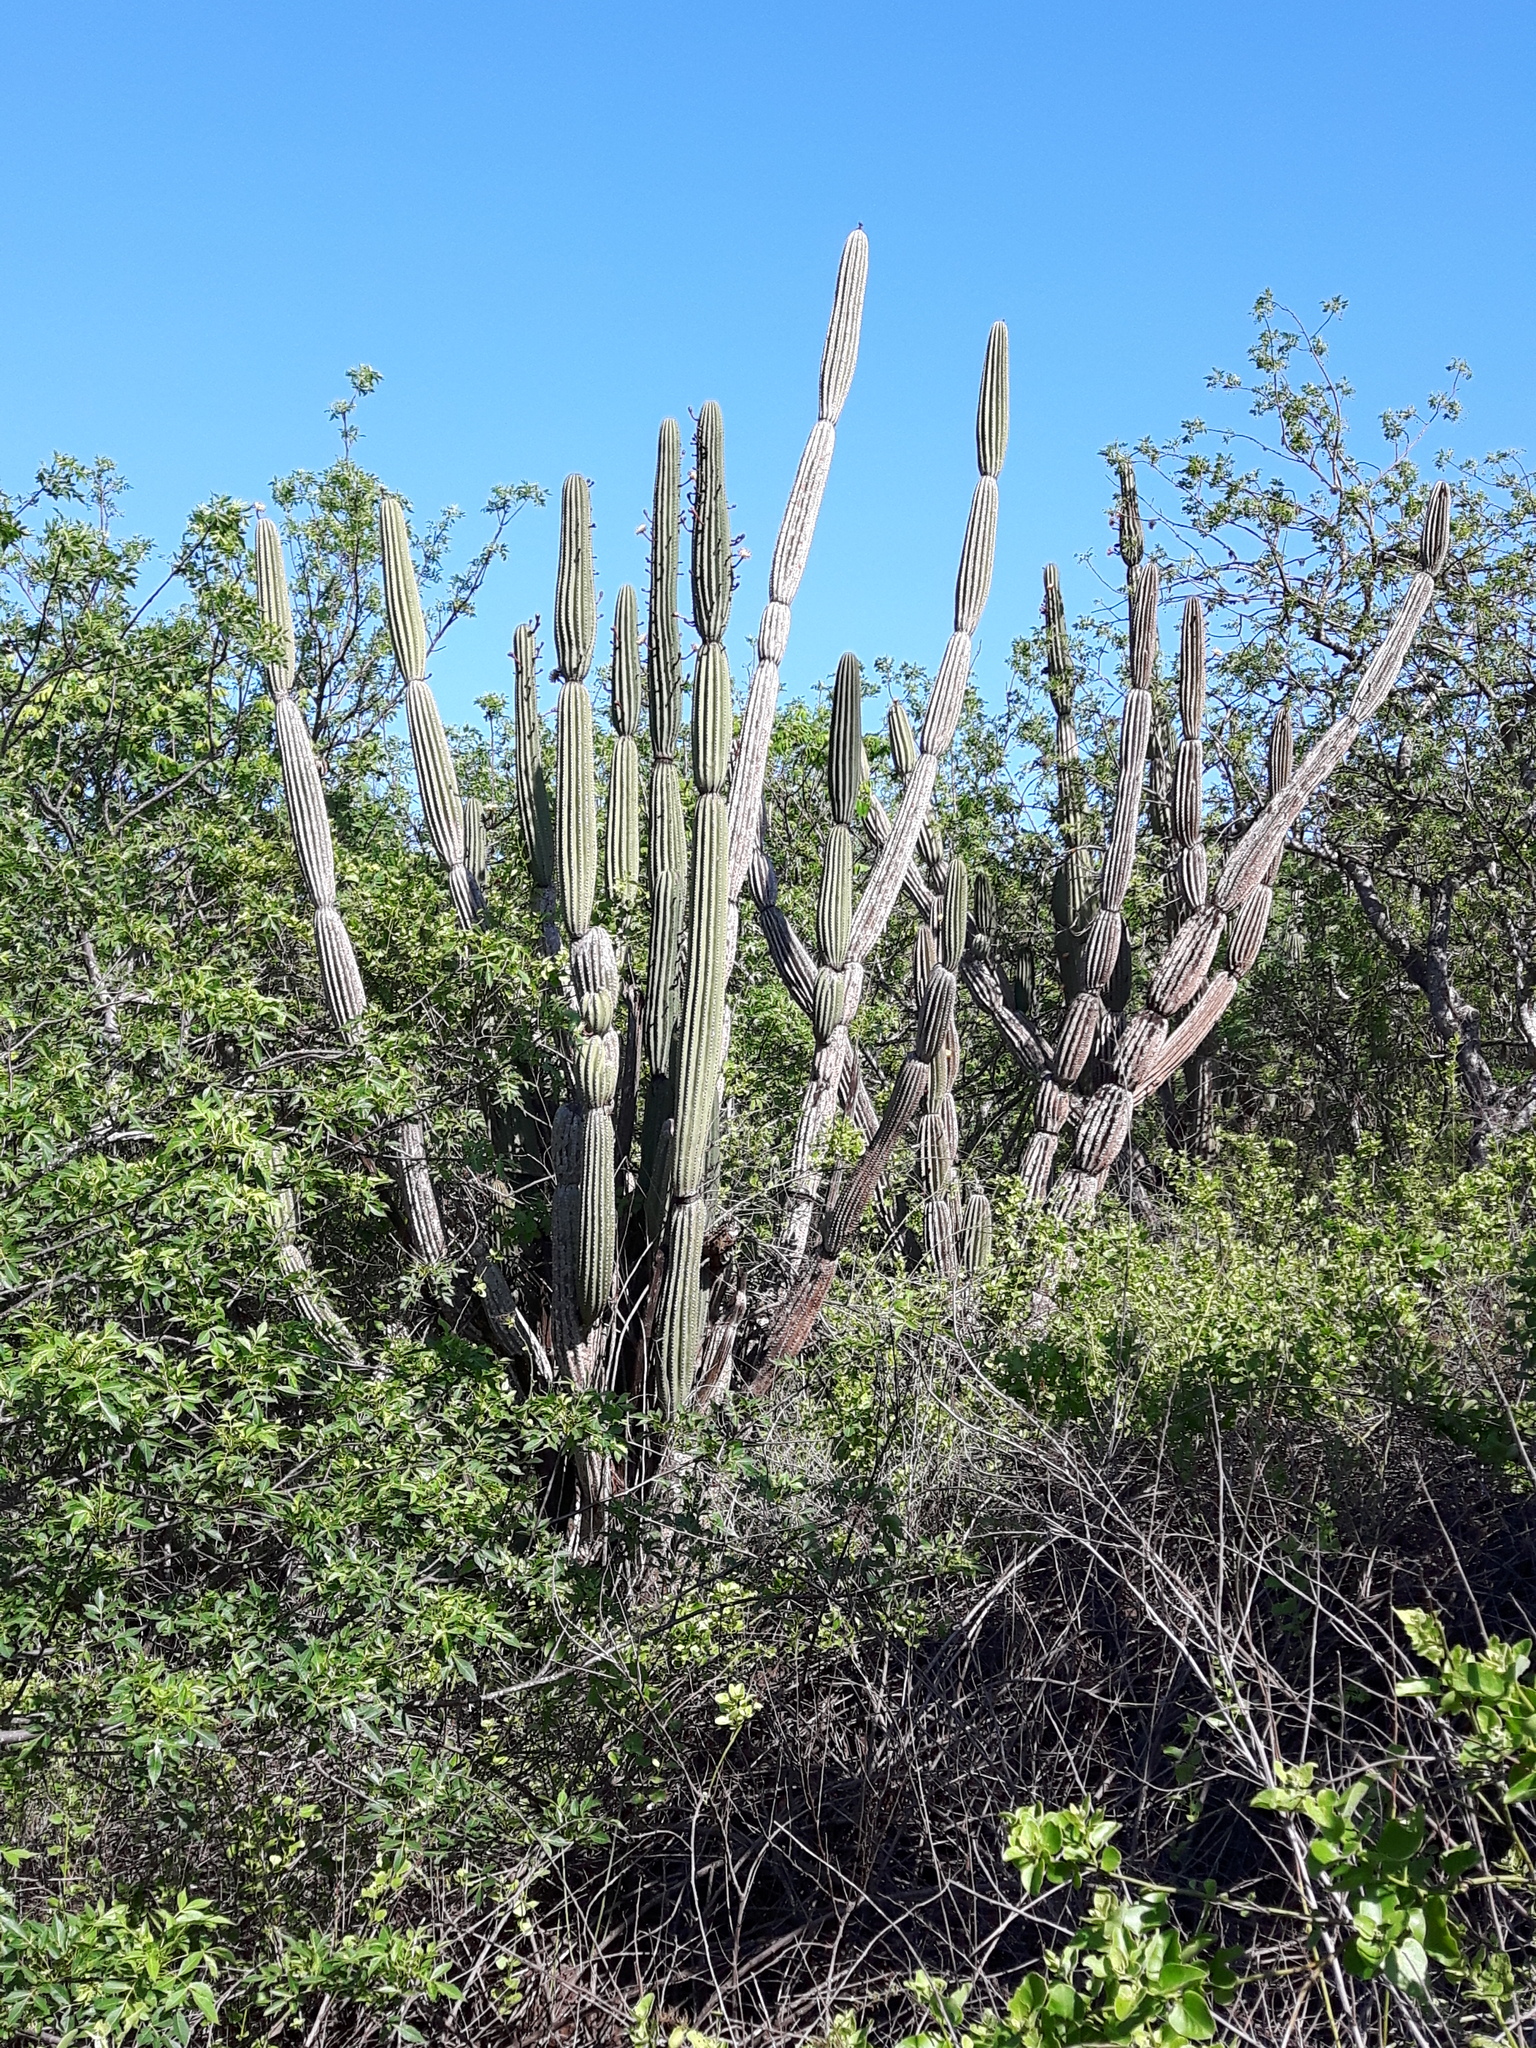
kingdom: Plantae
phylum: Tracheophyta
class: Magnoliopsida
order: Caryophyllales
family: Cactaceae
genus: Jasminocereus
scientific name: Jasminocereus thouarsii
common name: Candelabra cactus
